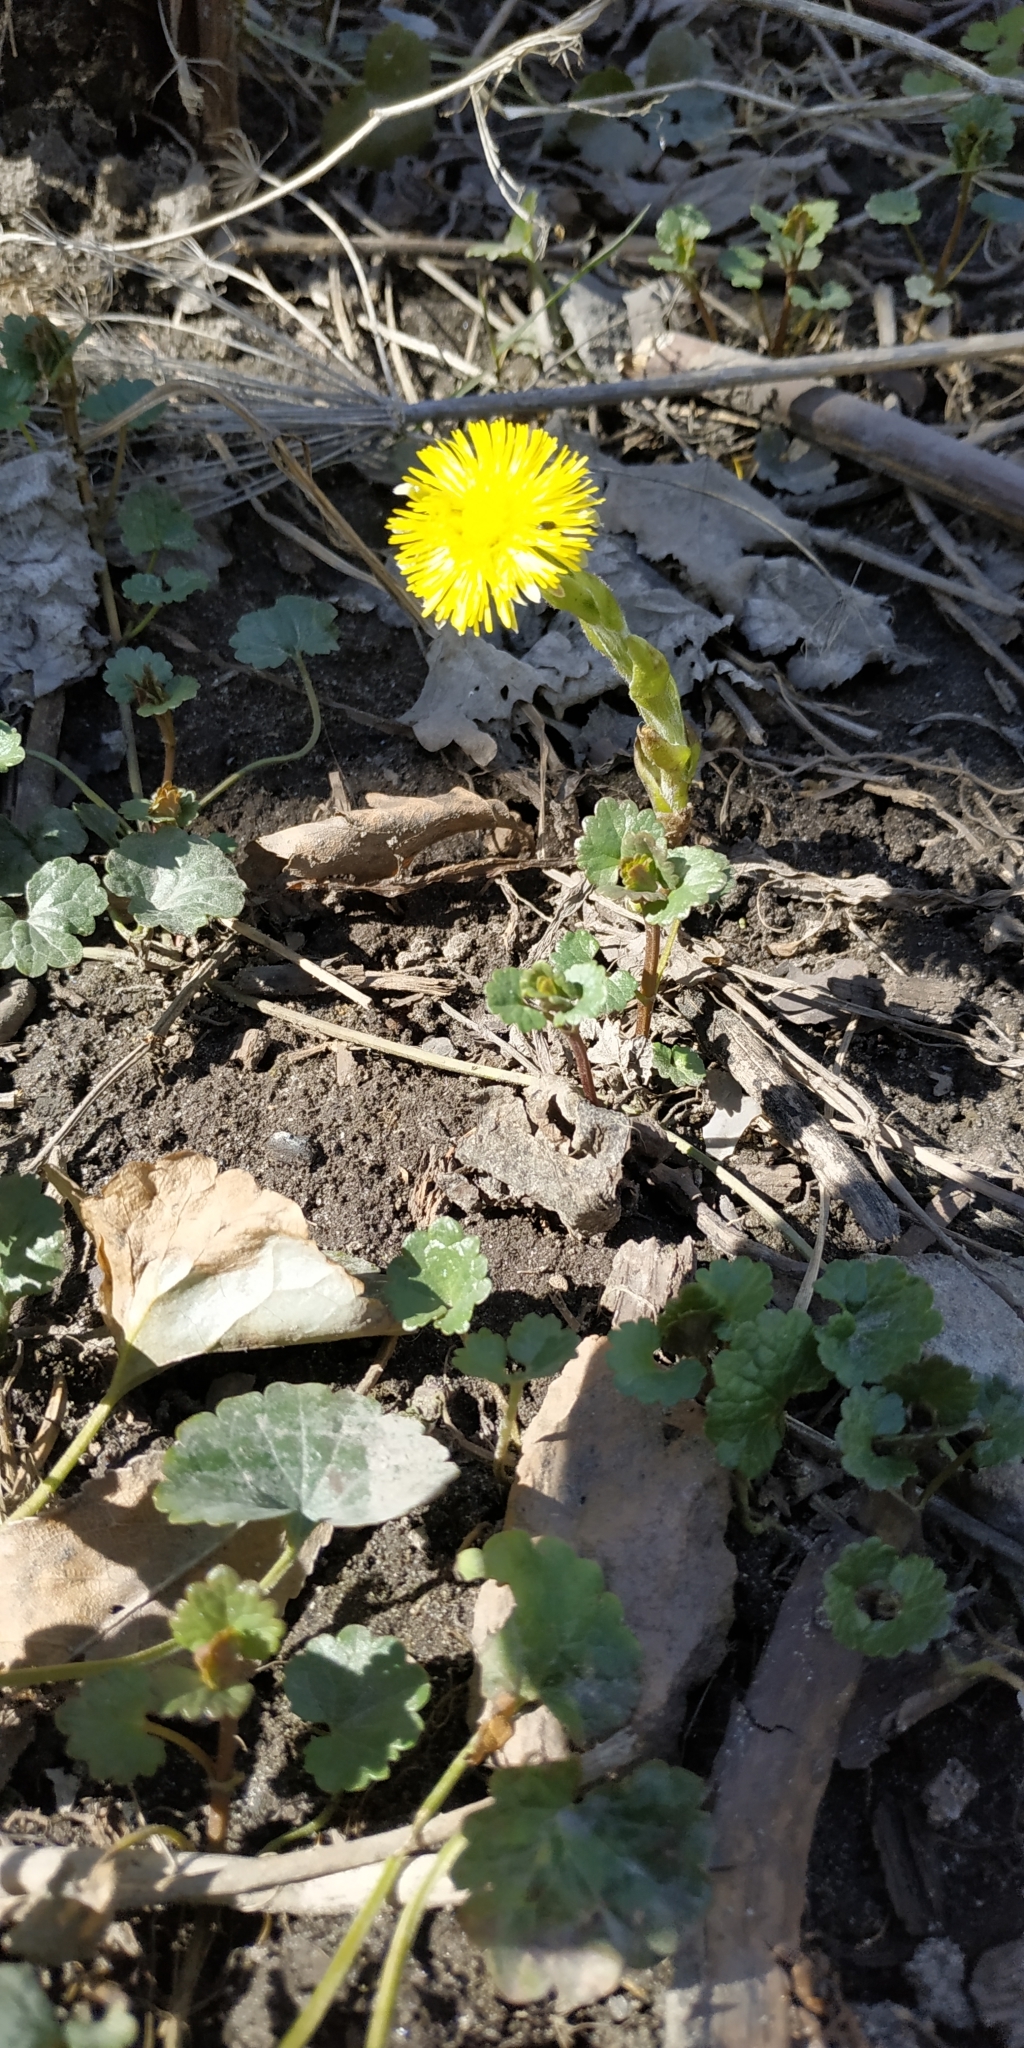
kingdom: Plantae
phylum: Tracheophyta
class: Magnoliopsida
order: Asterales
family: Asteraceae
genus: Tussilago
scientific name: Tussilago farfara
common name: Coltsfoot
